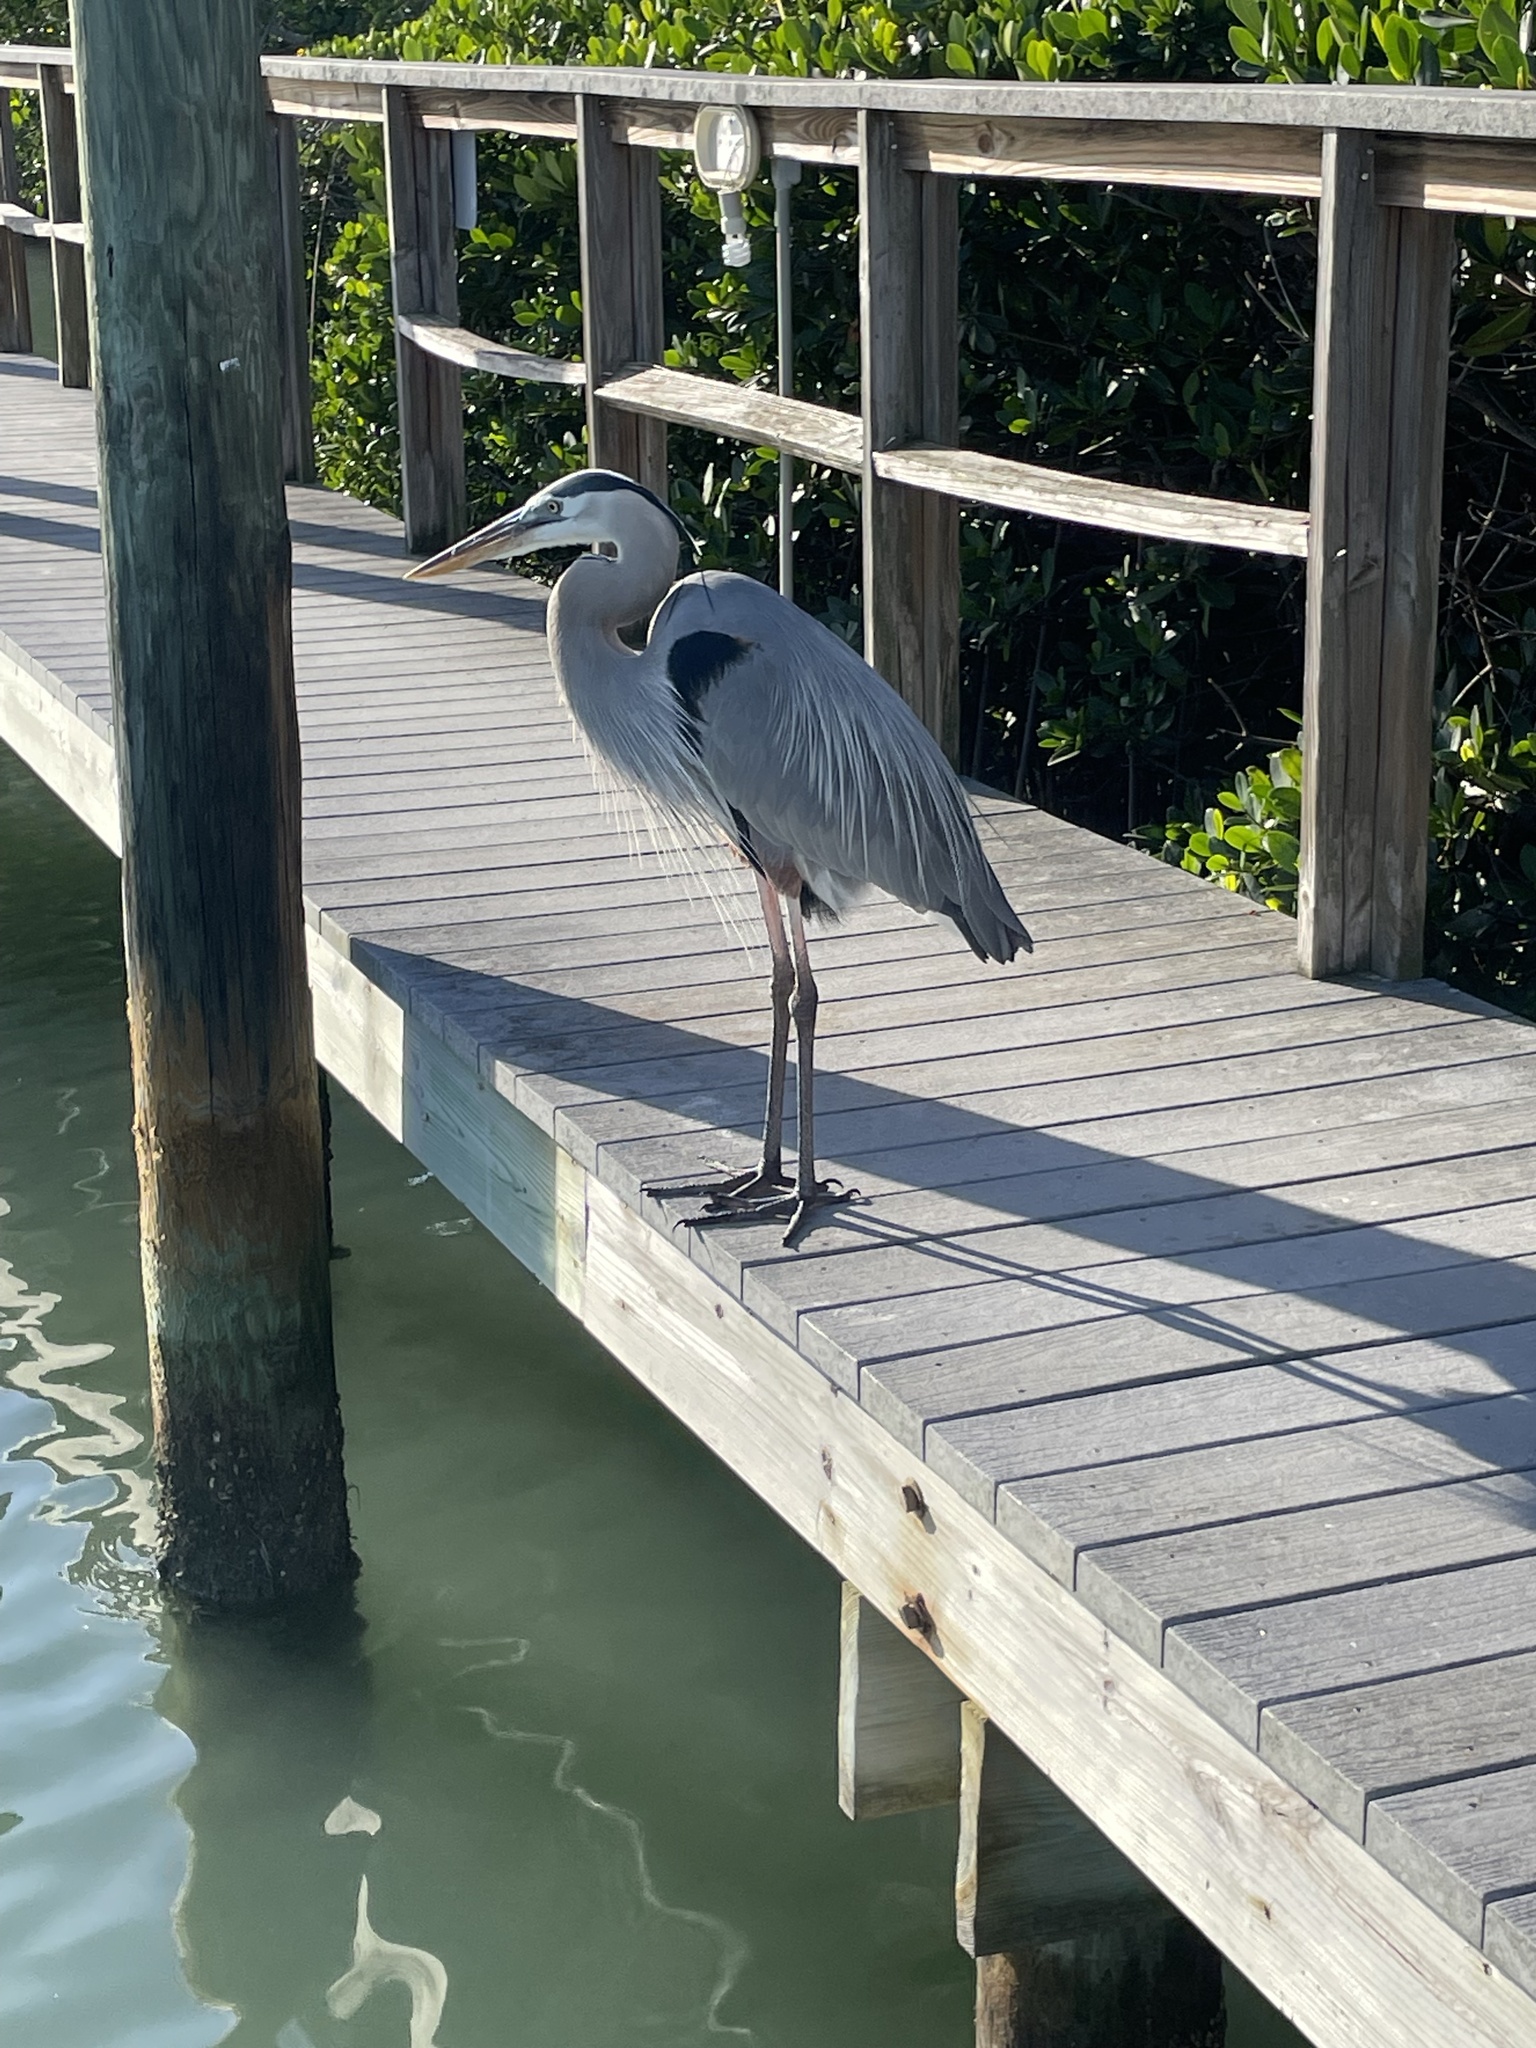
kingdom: Animalia
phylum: Chordata
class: Aves
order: Pelecaniformes
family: Ardeidae
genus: Ardea
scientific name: Ardea herodias
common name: Great blue heron
